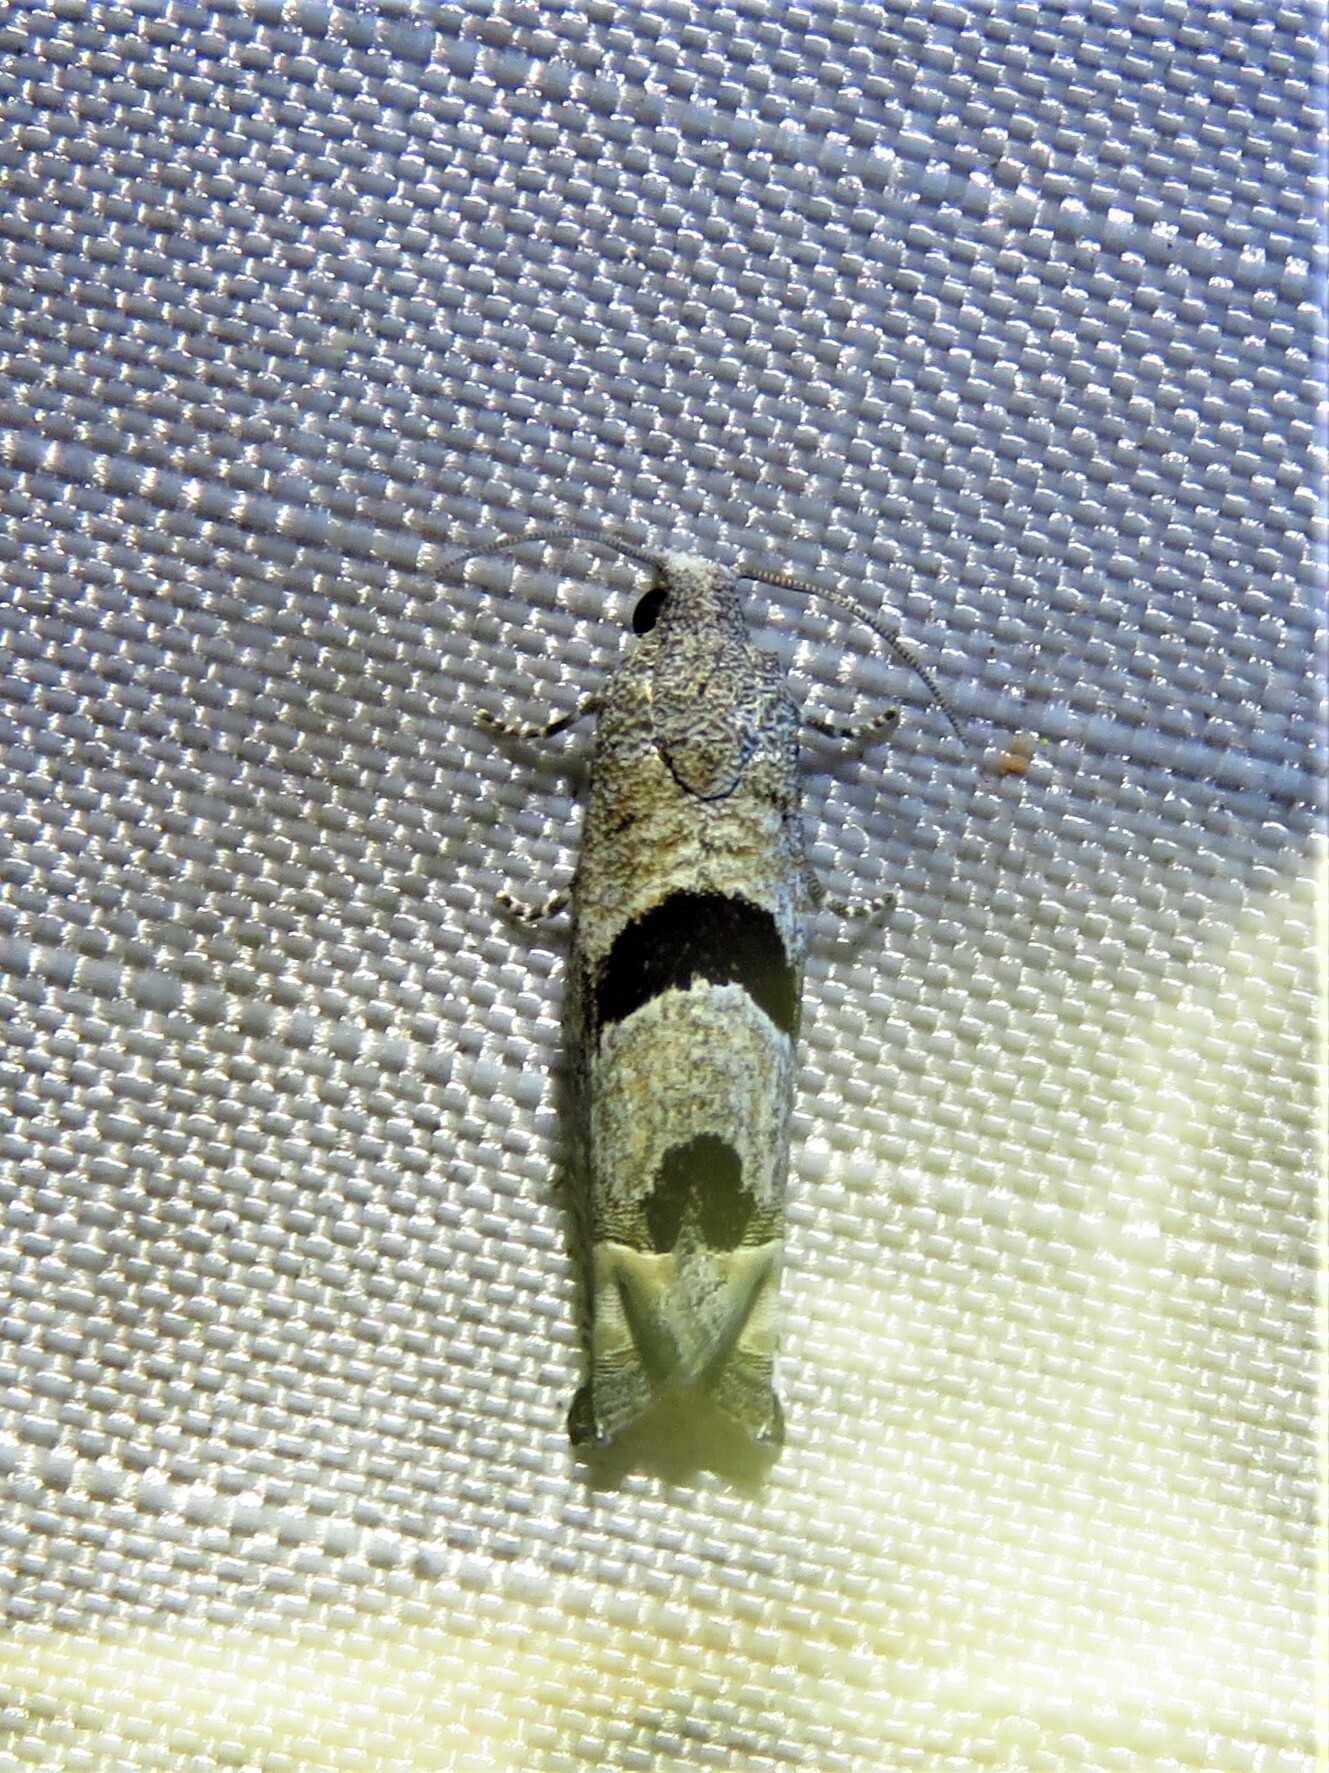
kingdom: Animalia
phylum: Arthropoda
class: Insecta
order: Lepidoptera
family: Tortricidae
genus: Suleima
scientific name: Suleima helianthana
